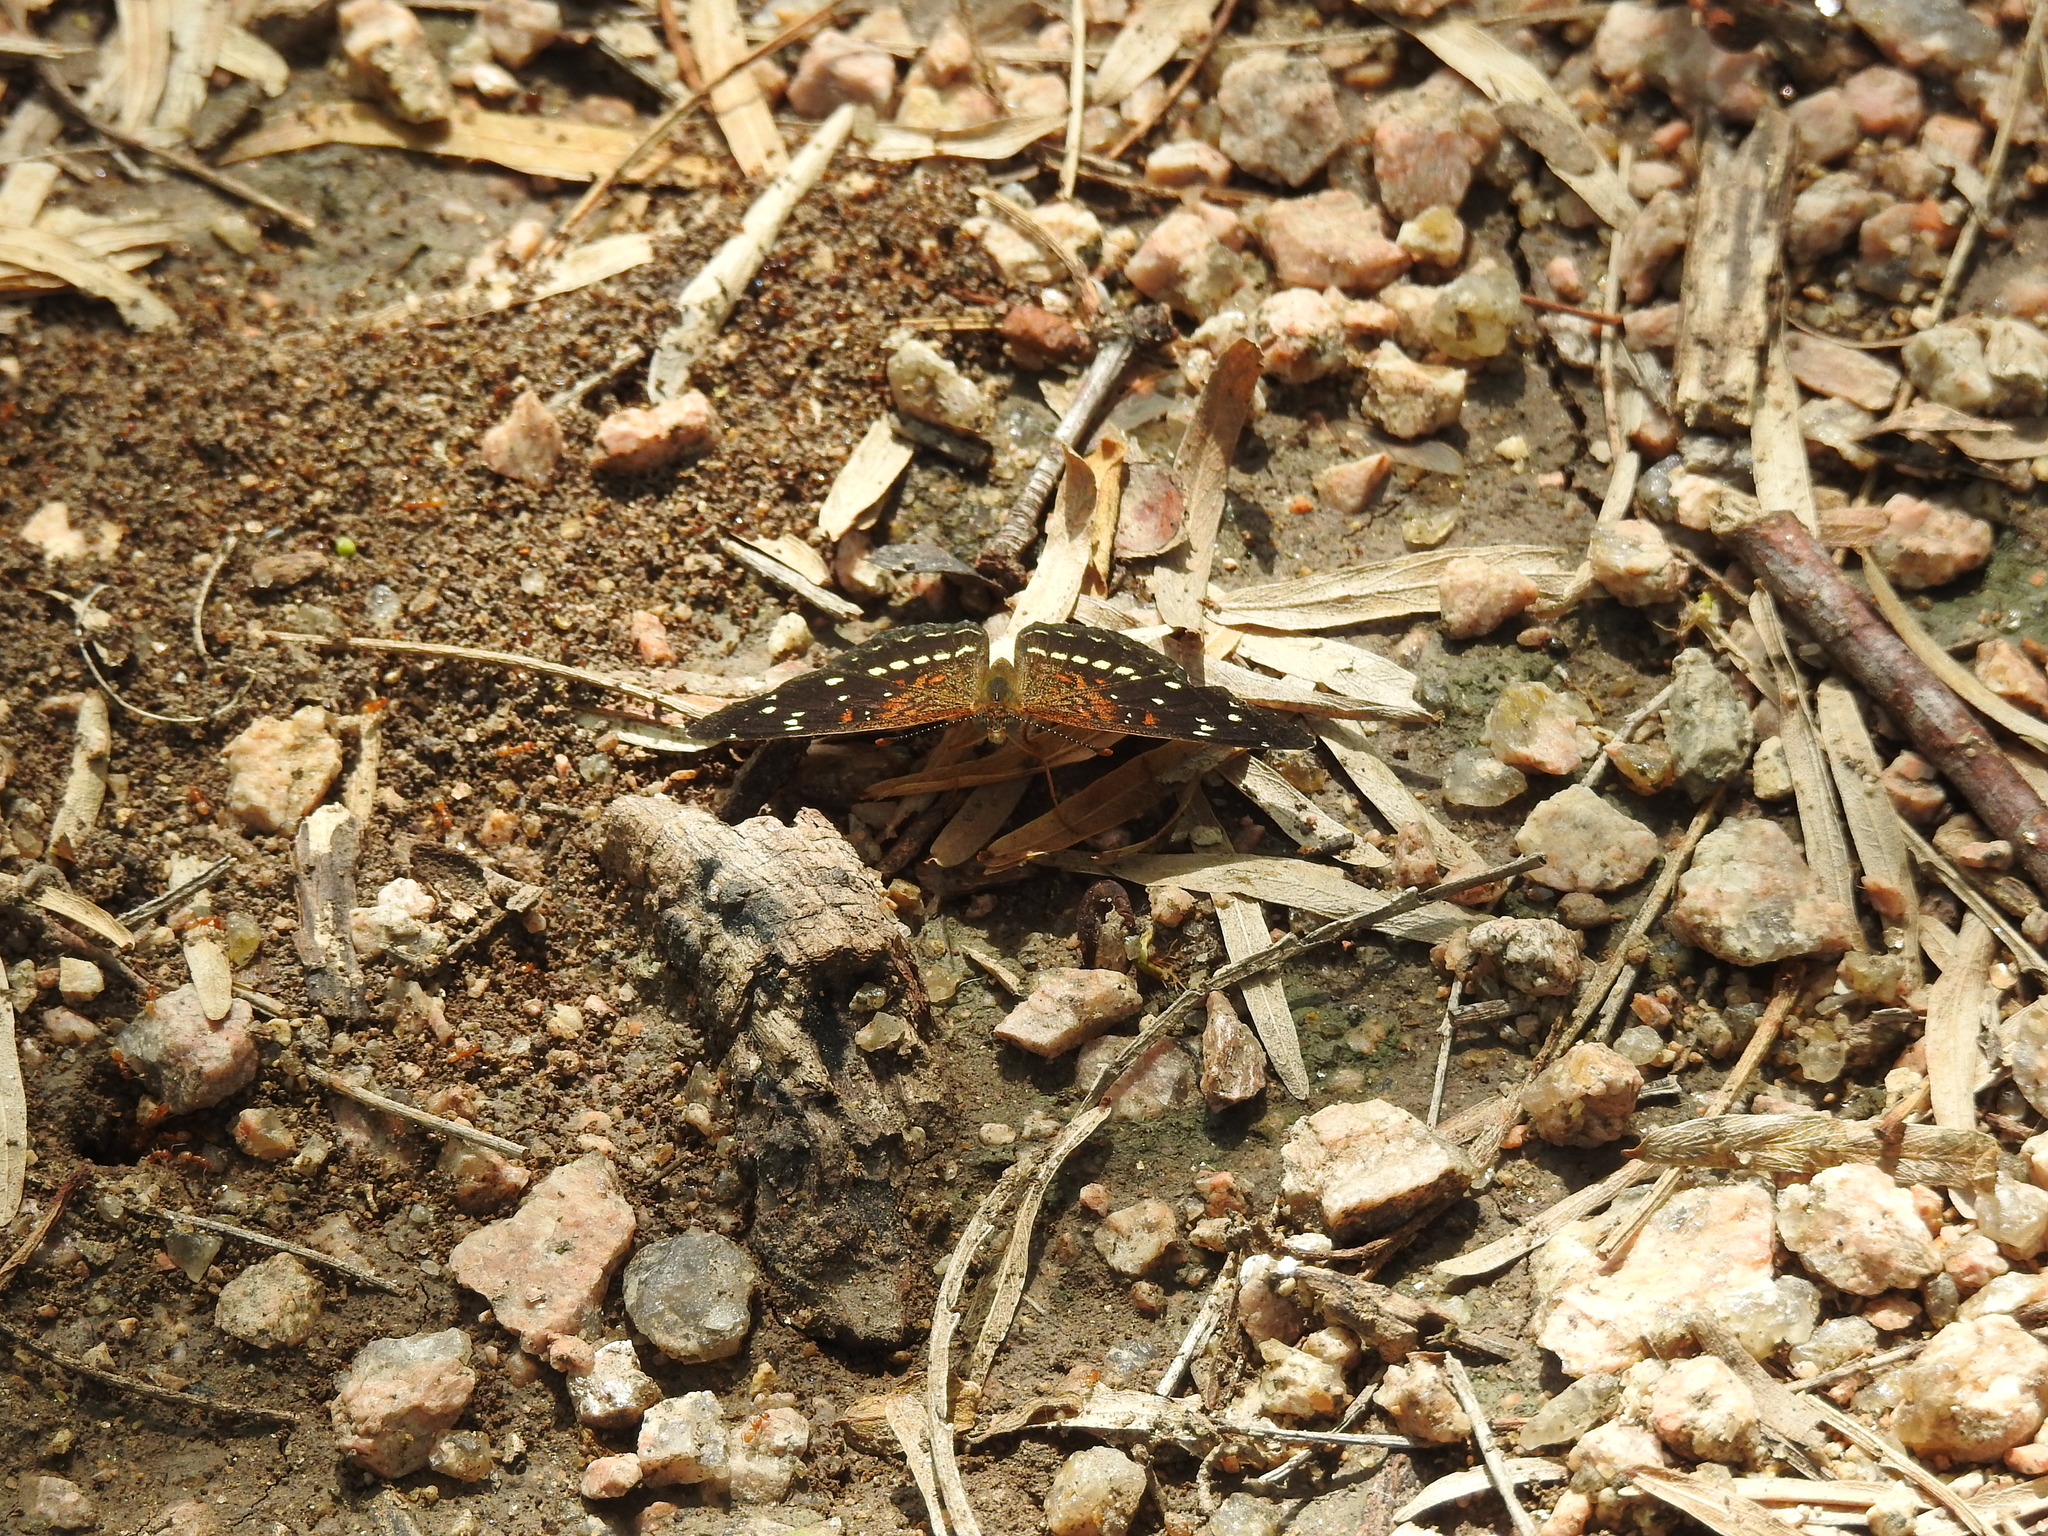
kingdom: Animalia
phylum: Arthropoda
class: Insecta
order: Lepidoptera
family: Nymphalidae
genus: Anthanassa
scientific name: Anthanassa texana
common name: Texan crescent
